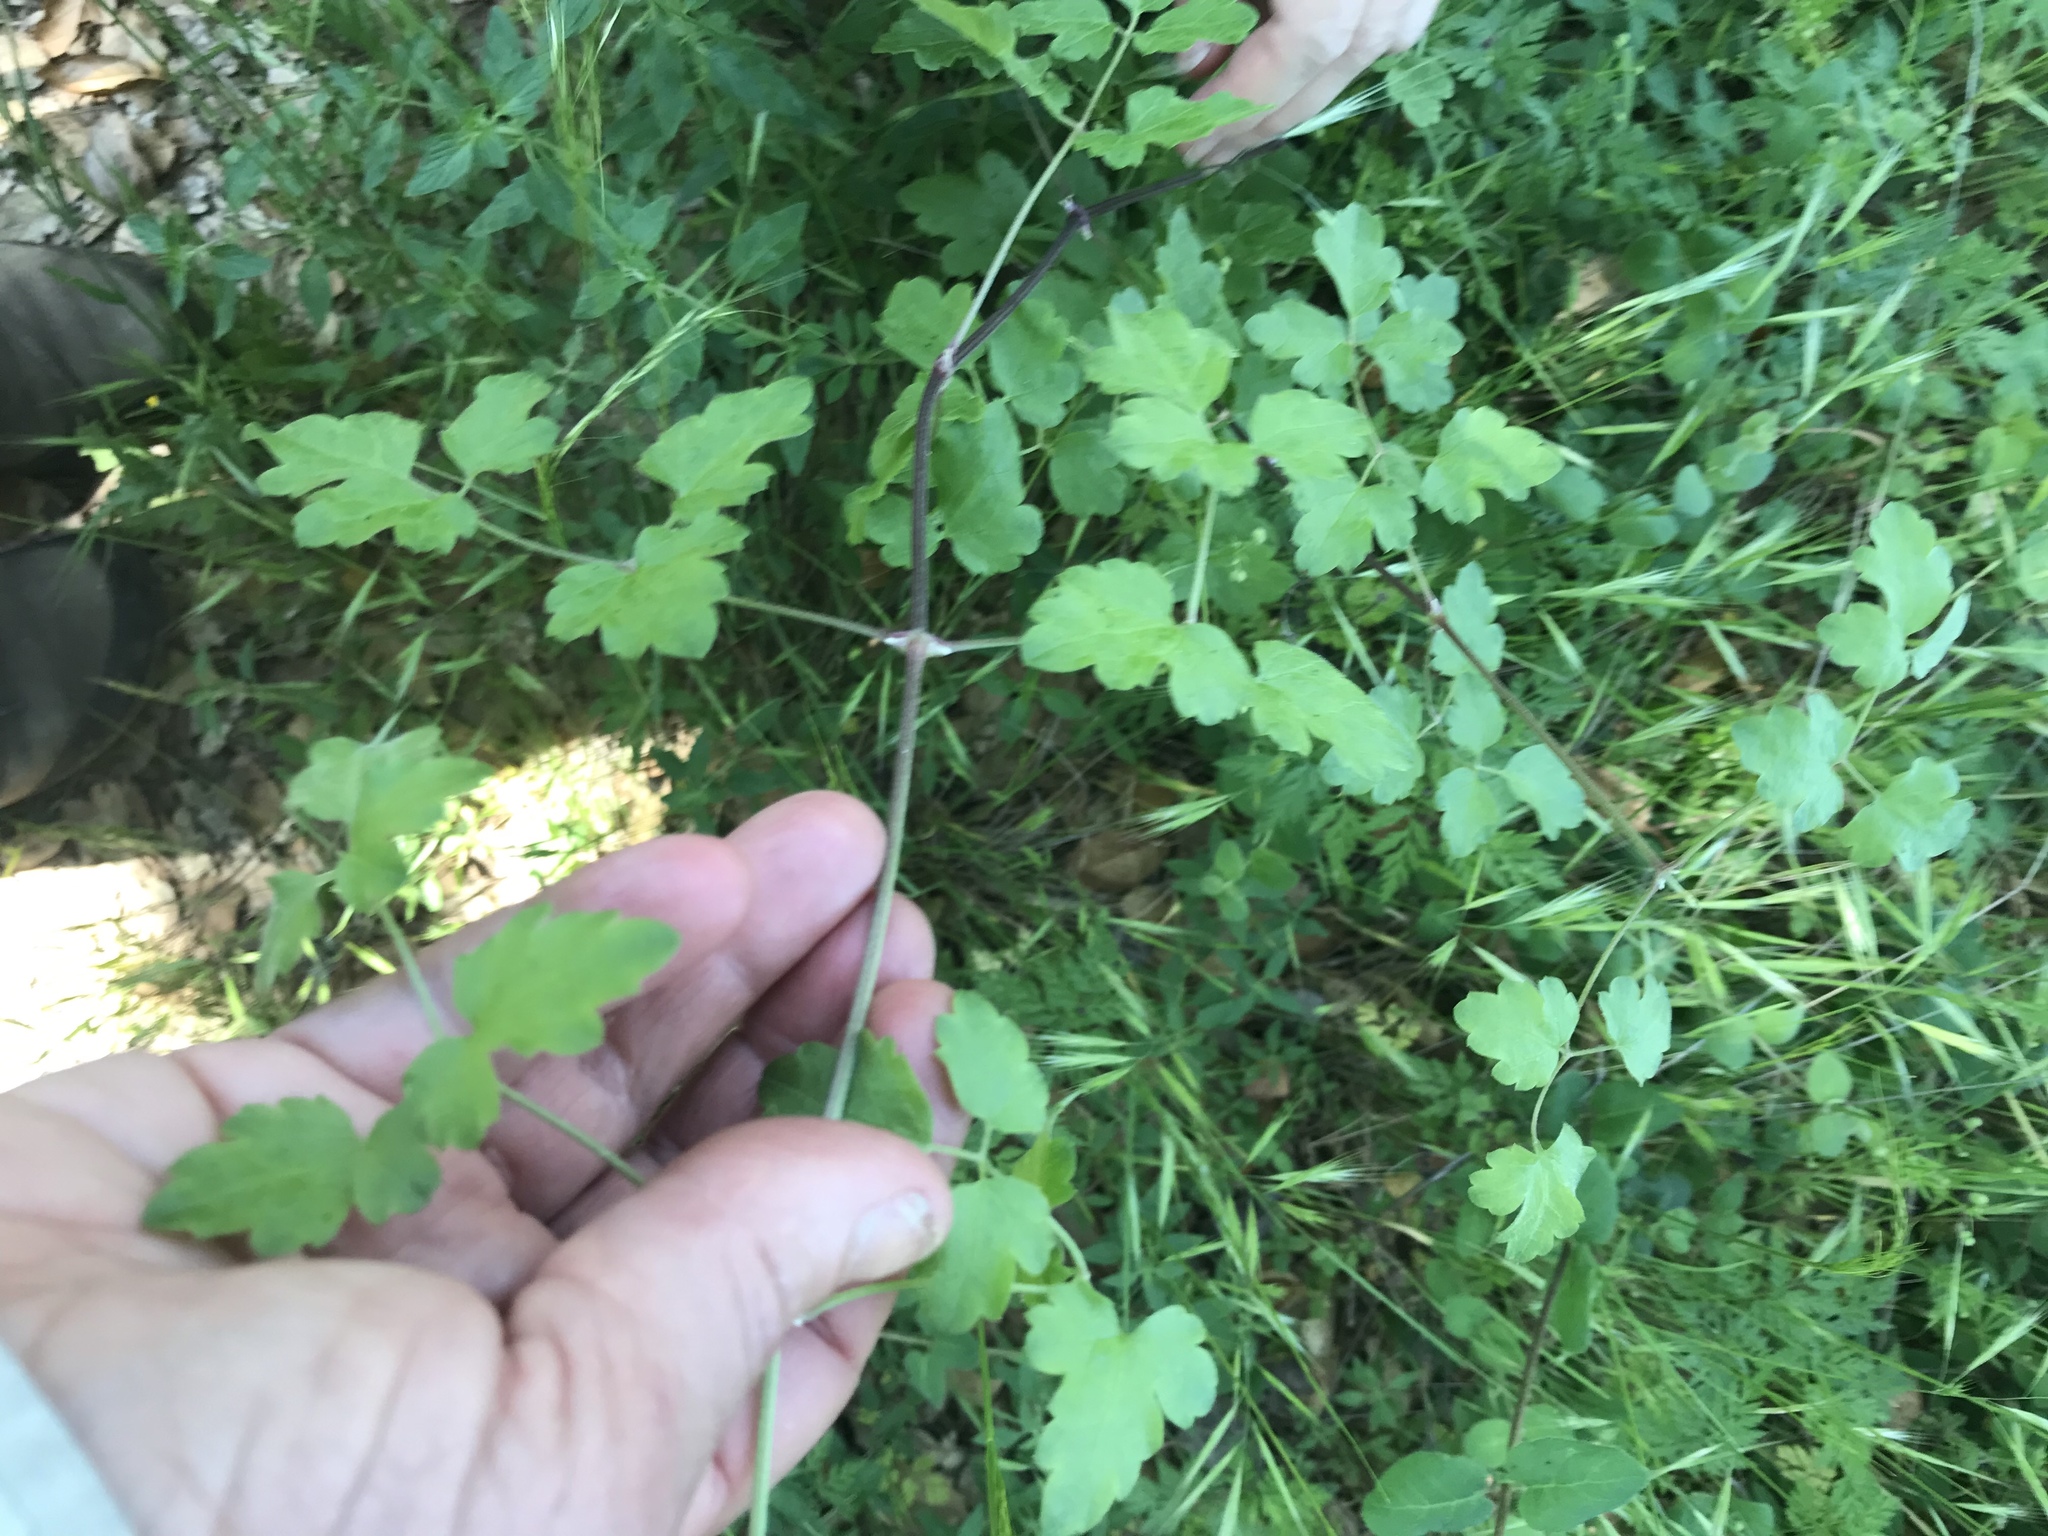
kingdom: Plantae
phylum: Tracheophyta
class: Magnoliopsida
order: Ranunculales
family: Ranunculaceae
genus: Clematis
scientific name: Clematis lasiantha
